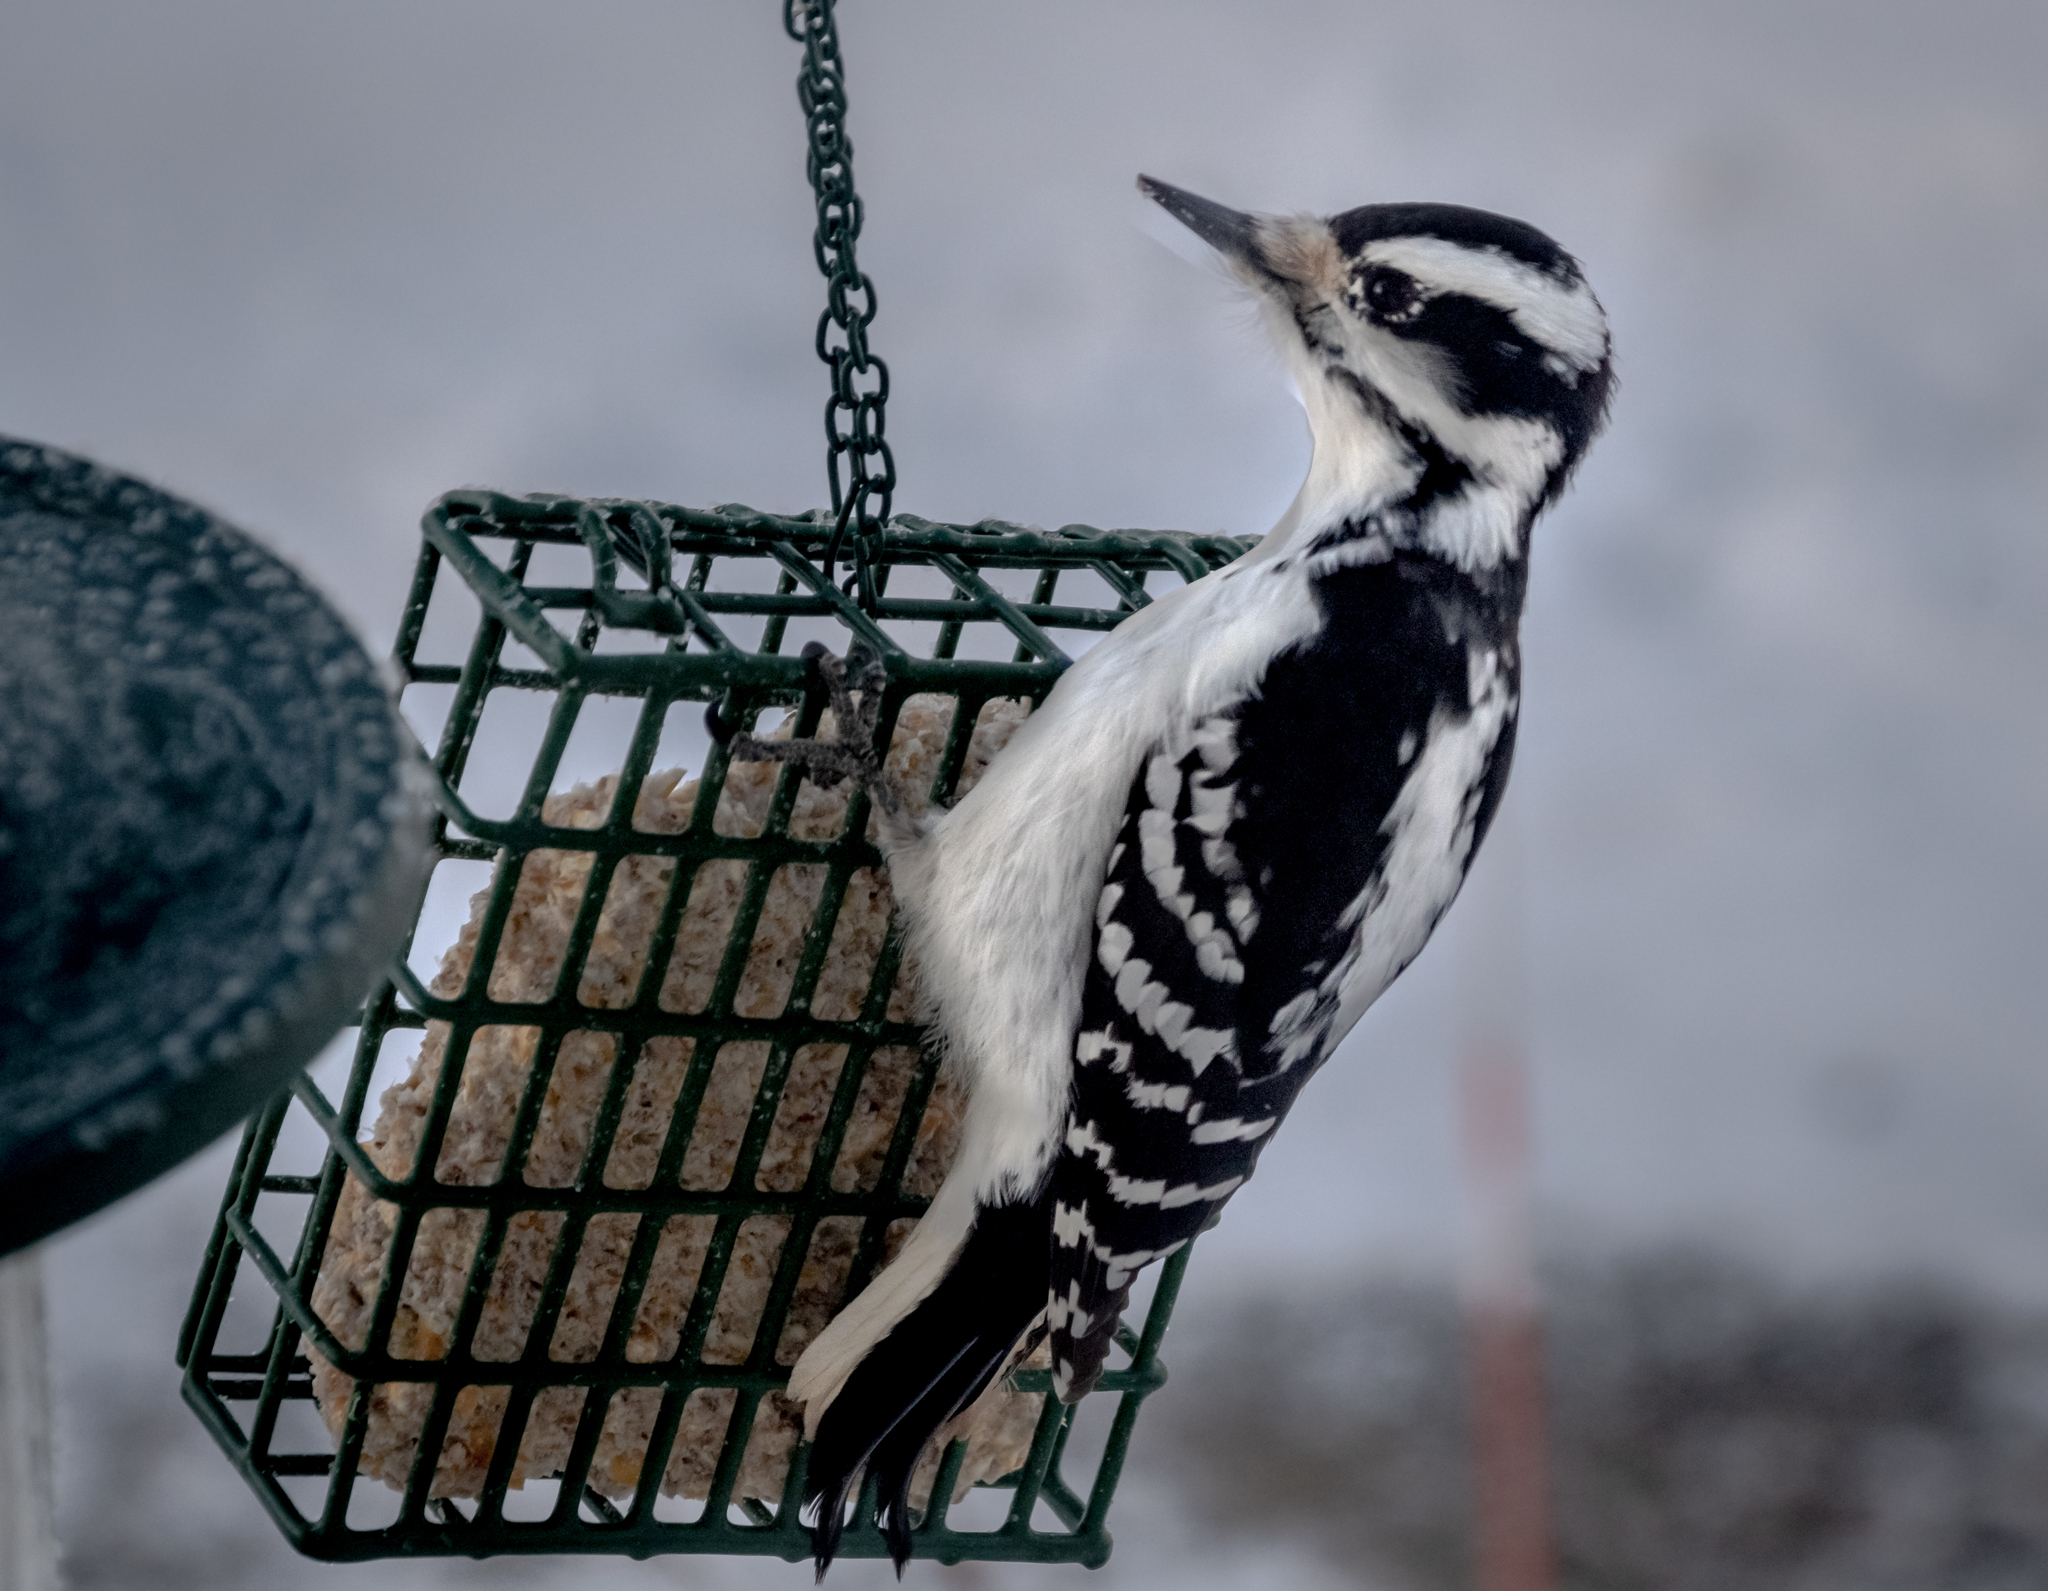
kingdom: Animalia
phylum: Chordata
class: Aves
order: Piciformes
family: Picidae
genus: Leuconotopicus
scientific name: Leuconotopicus villosus
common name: Hairy woodpecker
